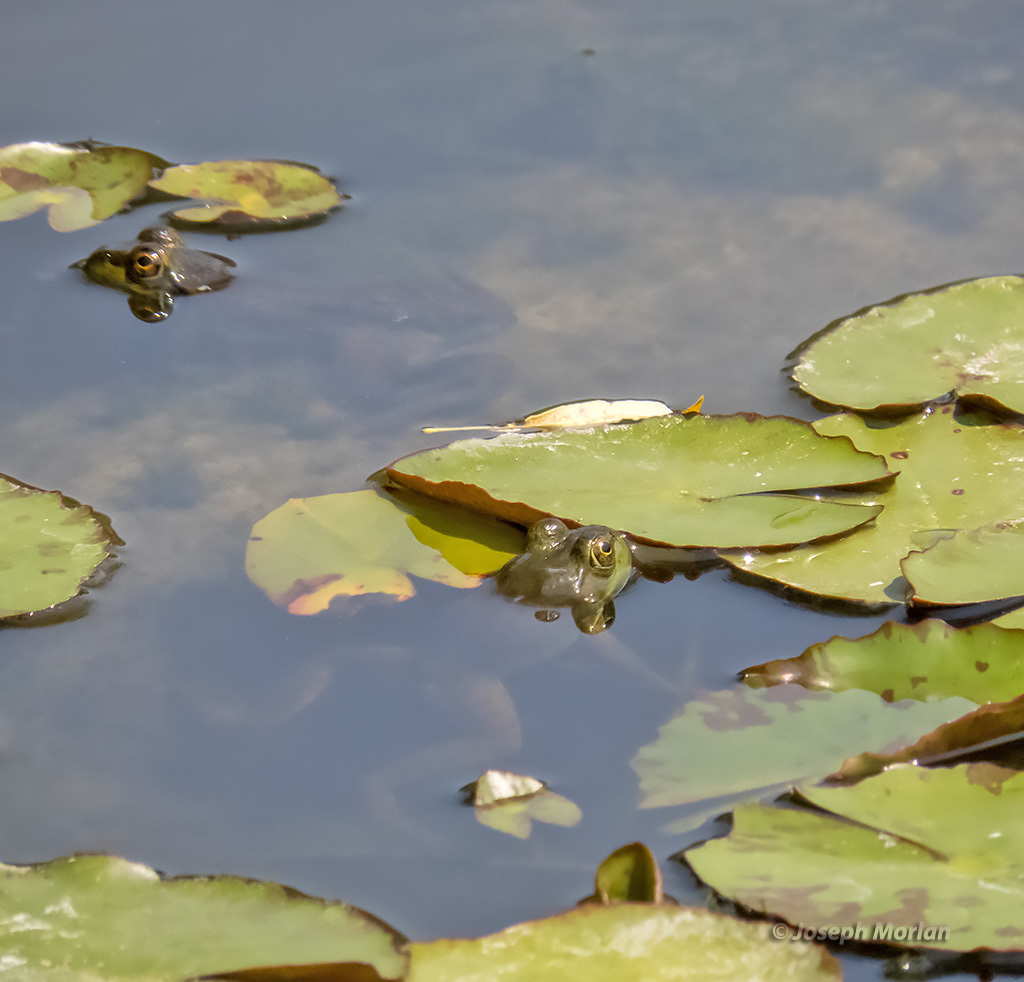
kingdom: Animalia
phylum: Chordata
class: Amphibia
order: Anura
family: Ranidae
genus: Lithobates
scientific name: Lithobates catesbeianus
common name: American bullfrog
